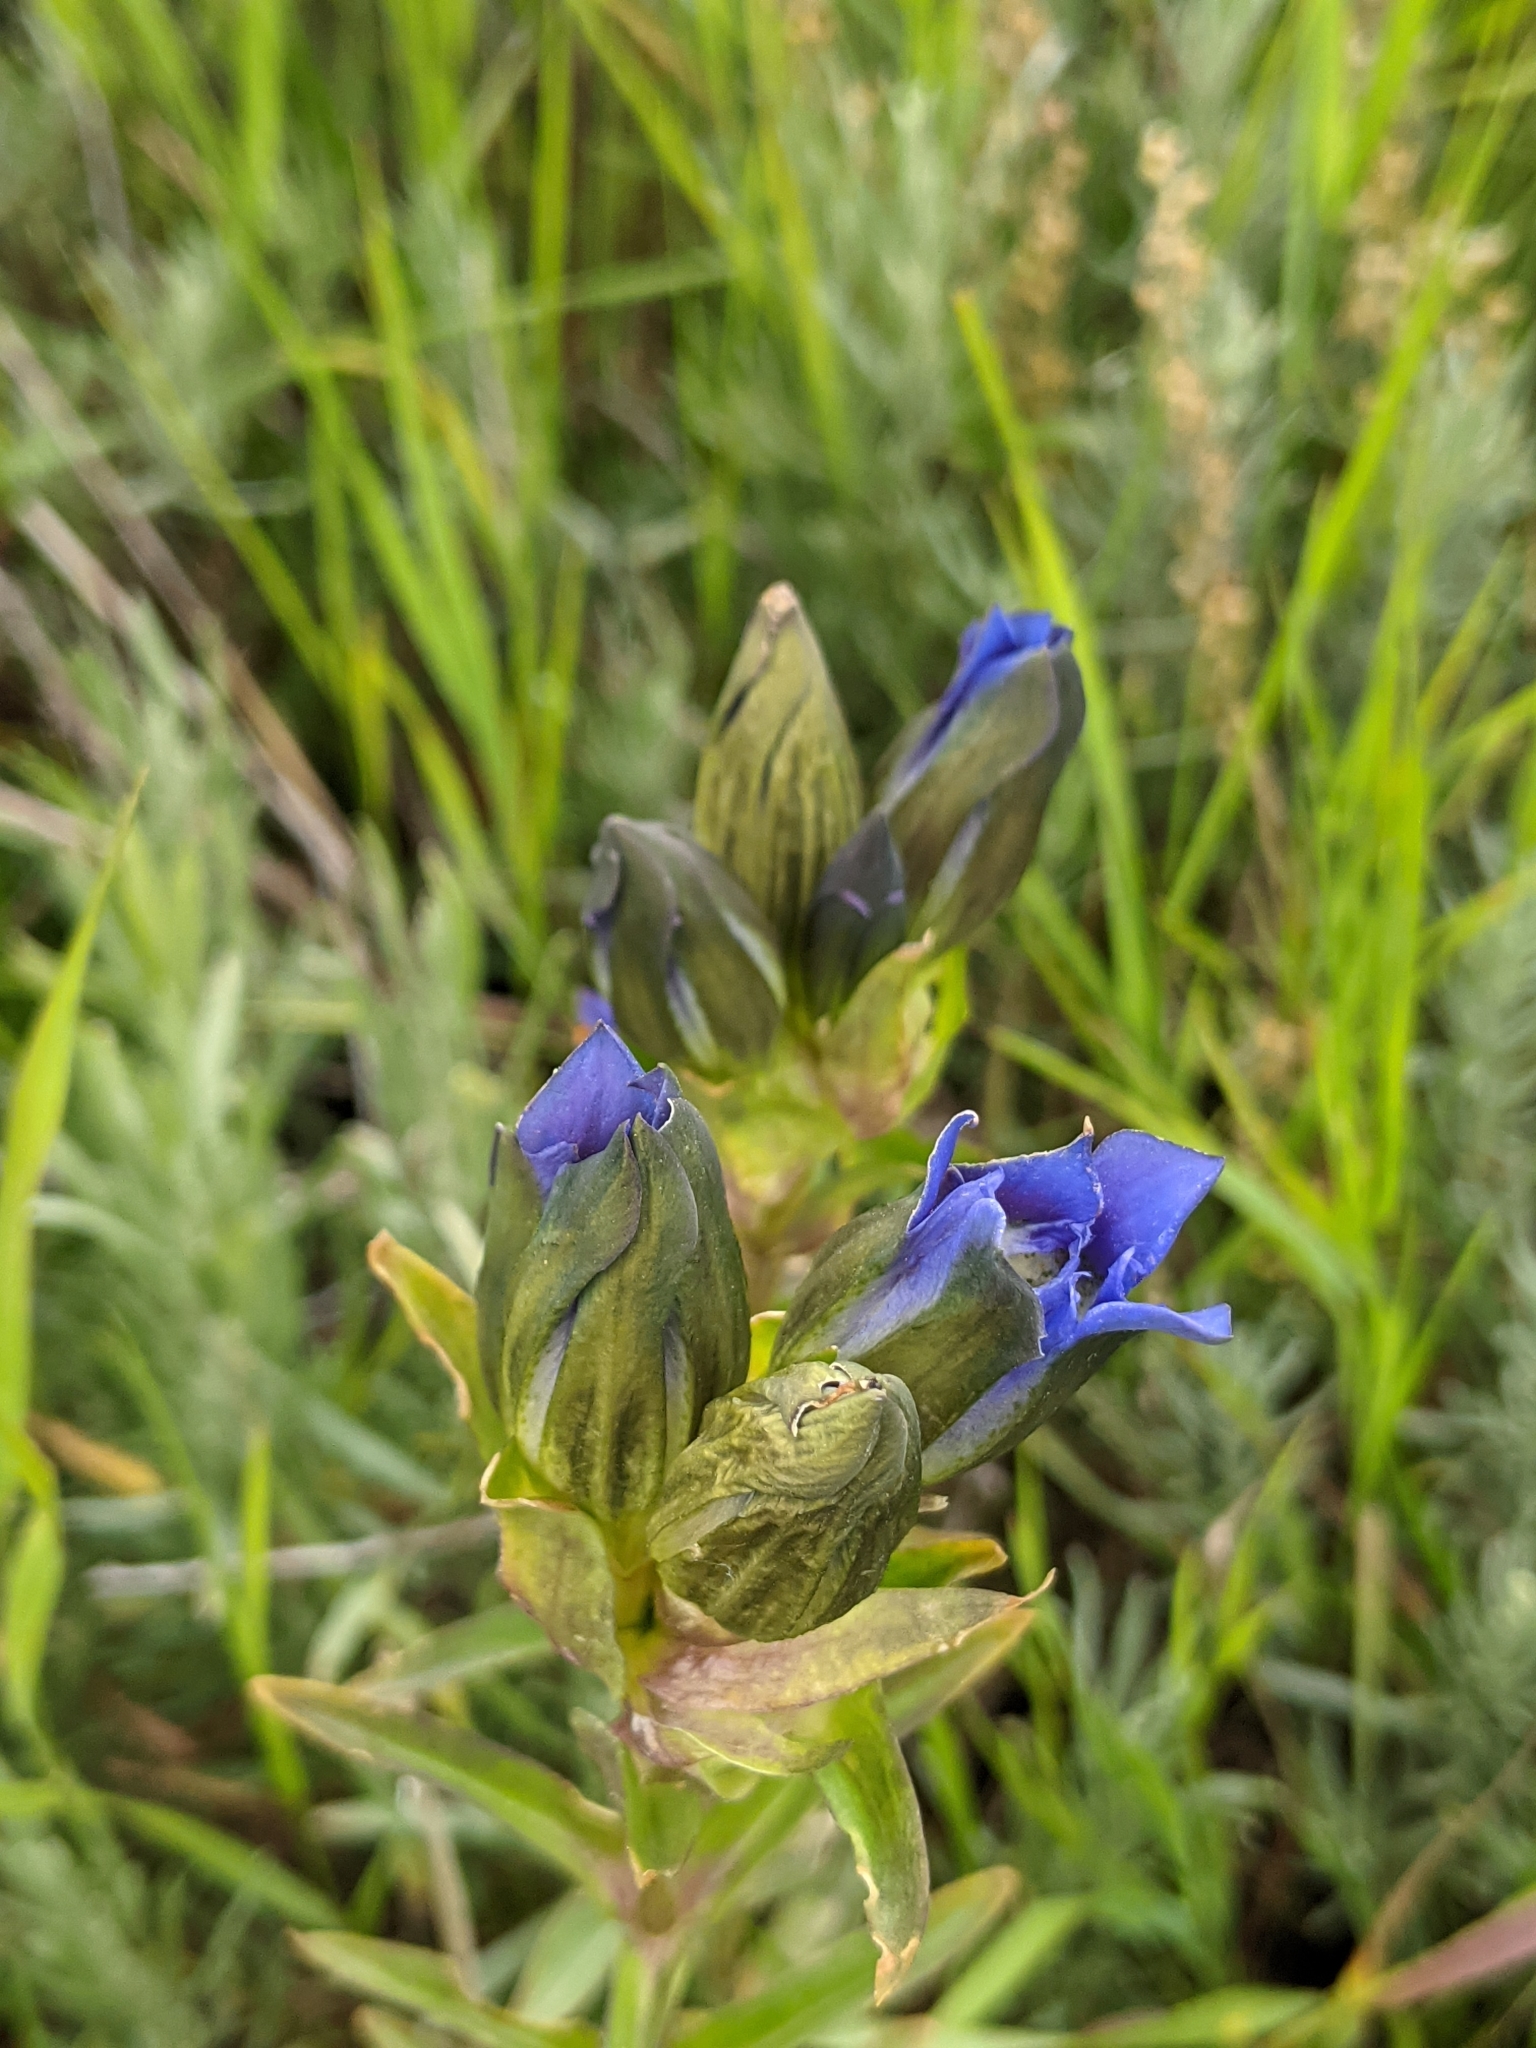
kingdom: Plantae
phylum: Tracheophyta
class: Magnoliopsida
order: Gentianales
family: Gentianaceae
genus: Gentiana
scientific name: Gentiana parryi
